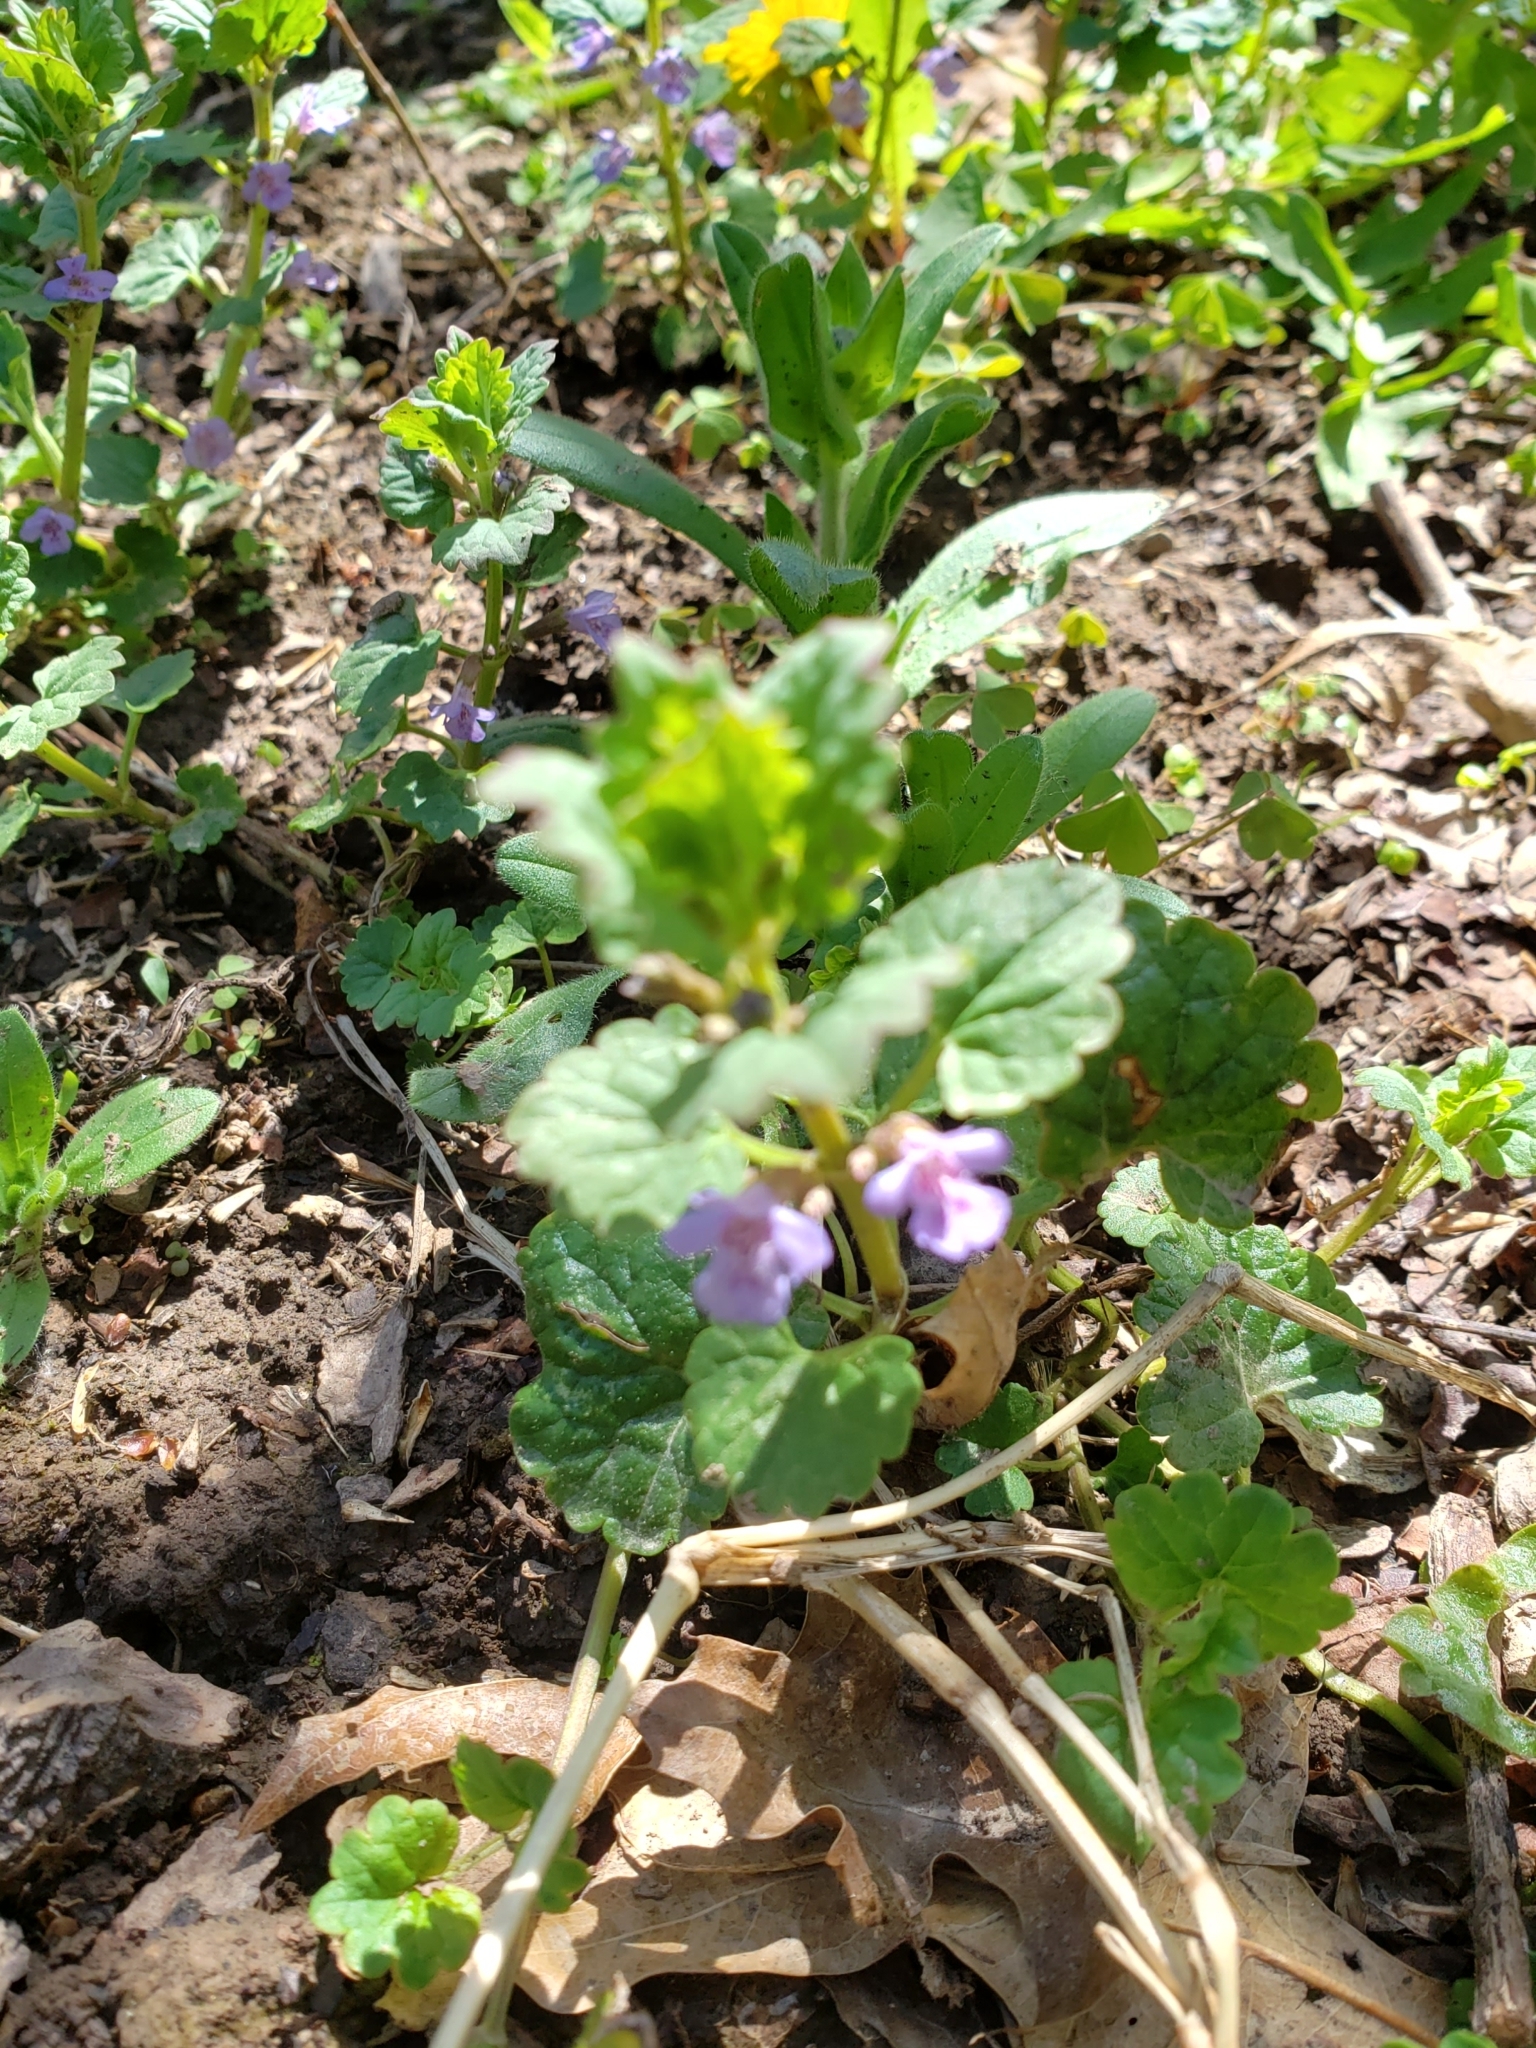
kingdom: Plantae
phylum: Tracheophyta
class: Magnoliopsida
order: Lamiales
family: Lamiaceae
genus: Glechoma
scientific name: Glechoma hederacea
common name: Ground ivy
